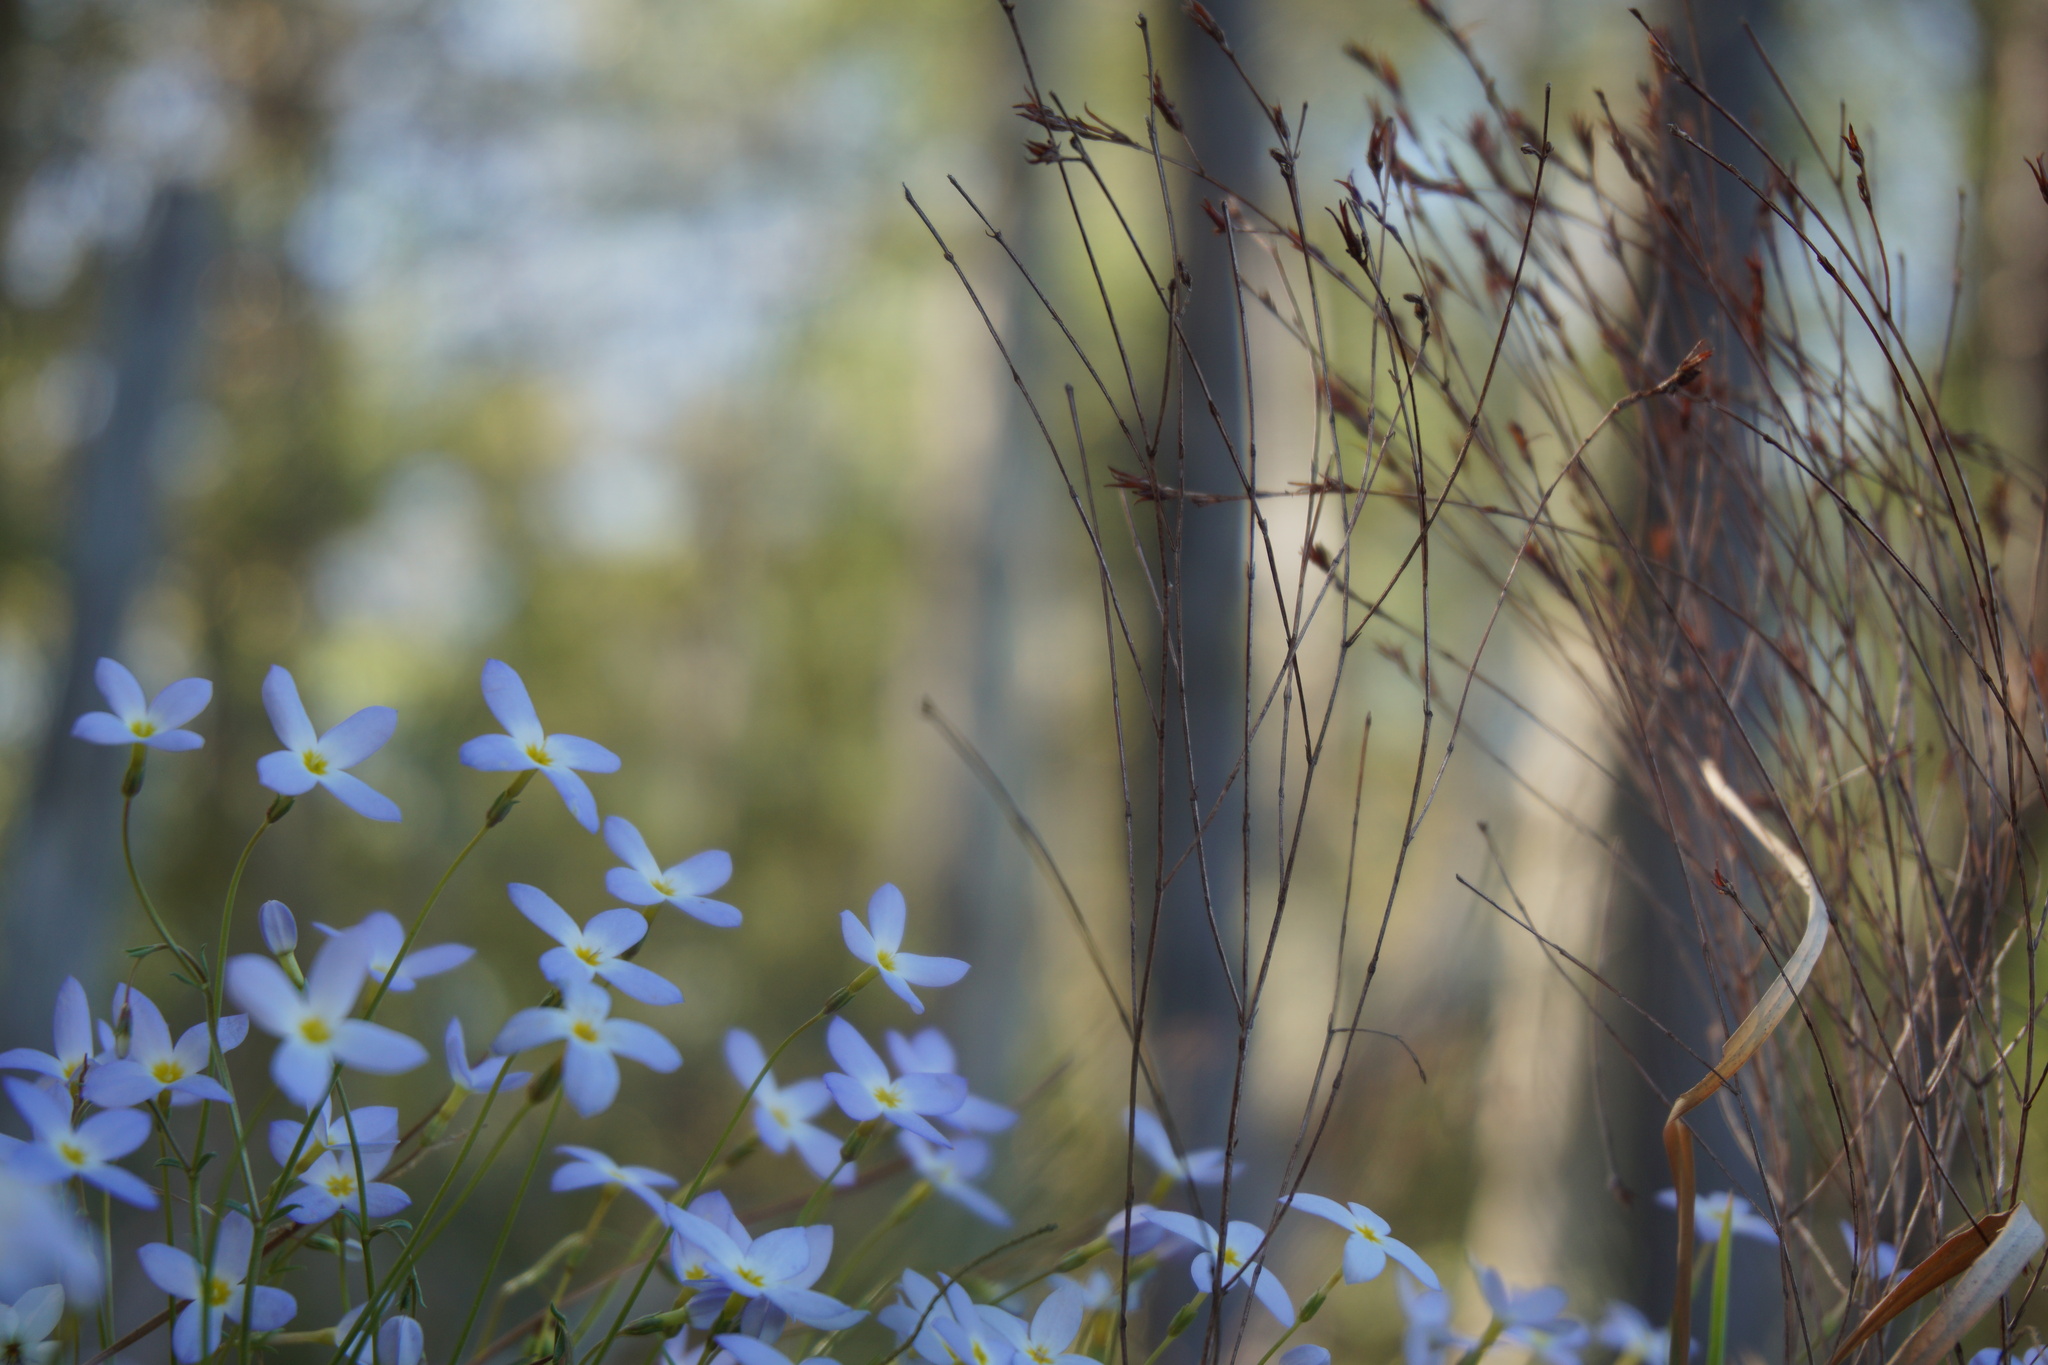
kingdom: Plantae
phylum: Tracheophyta
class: Magnoliopsida
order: Gentianales
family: Rubiaceae
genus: Houstonia
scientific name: Houstonia caerulea
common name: Bluets
